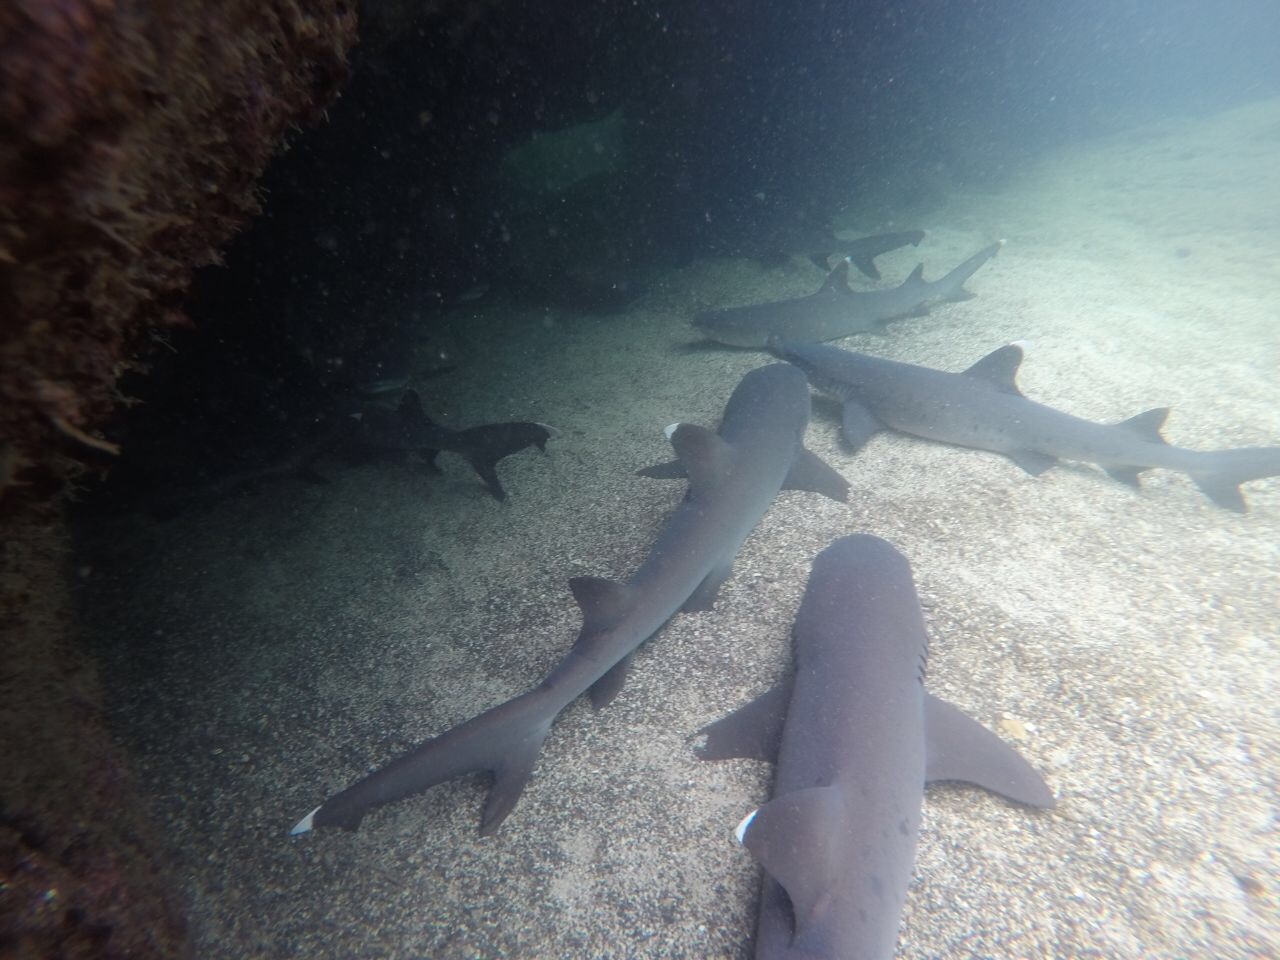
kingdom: Animalia
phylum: Chordata
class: Elasmobranchii
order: Carcharhiniformes
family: Carcharhinidae
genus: Triaenodon
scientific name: Triaenodon obesus
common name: Whitetip reef shark
